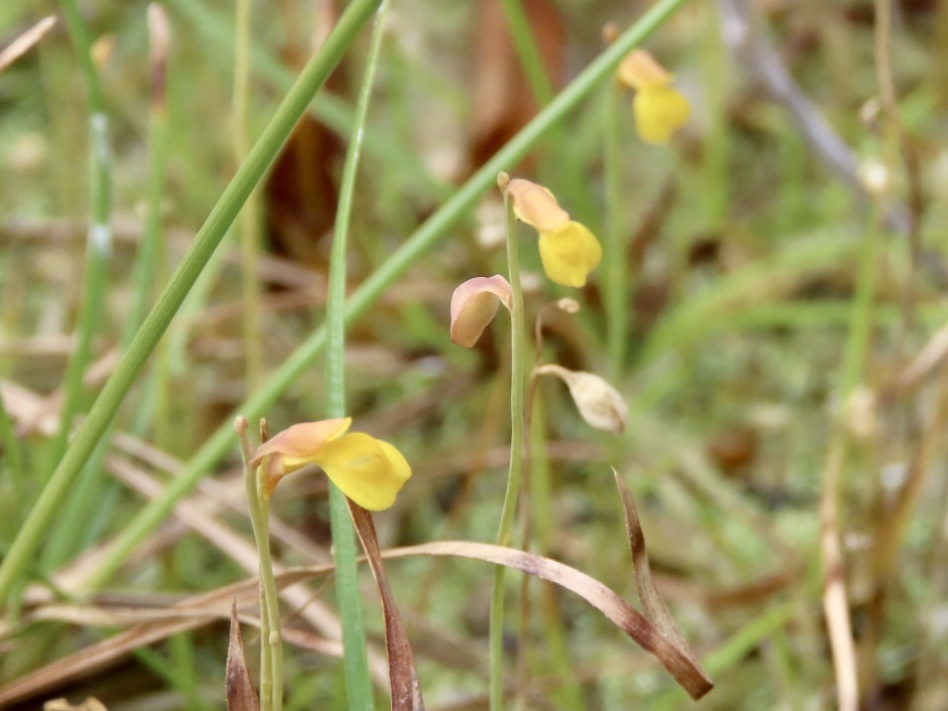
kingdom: Plantae
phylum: Tracheophyta
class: Magnoliopsida
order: Lamiales
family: Lentibulariaceae
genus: Utricularia
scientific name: Utricularia bifida
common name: Bifid bladderwort
